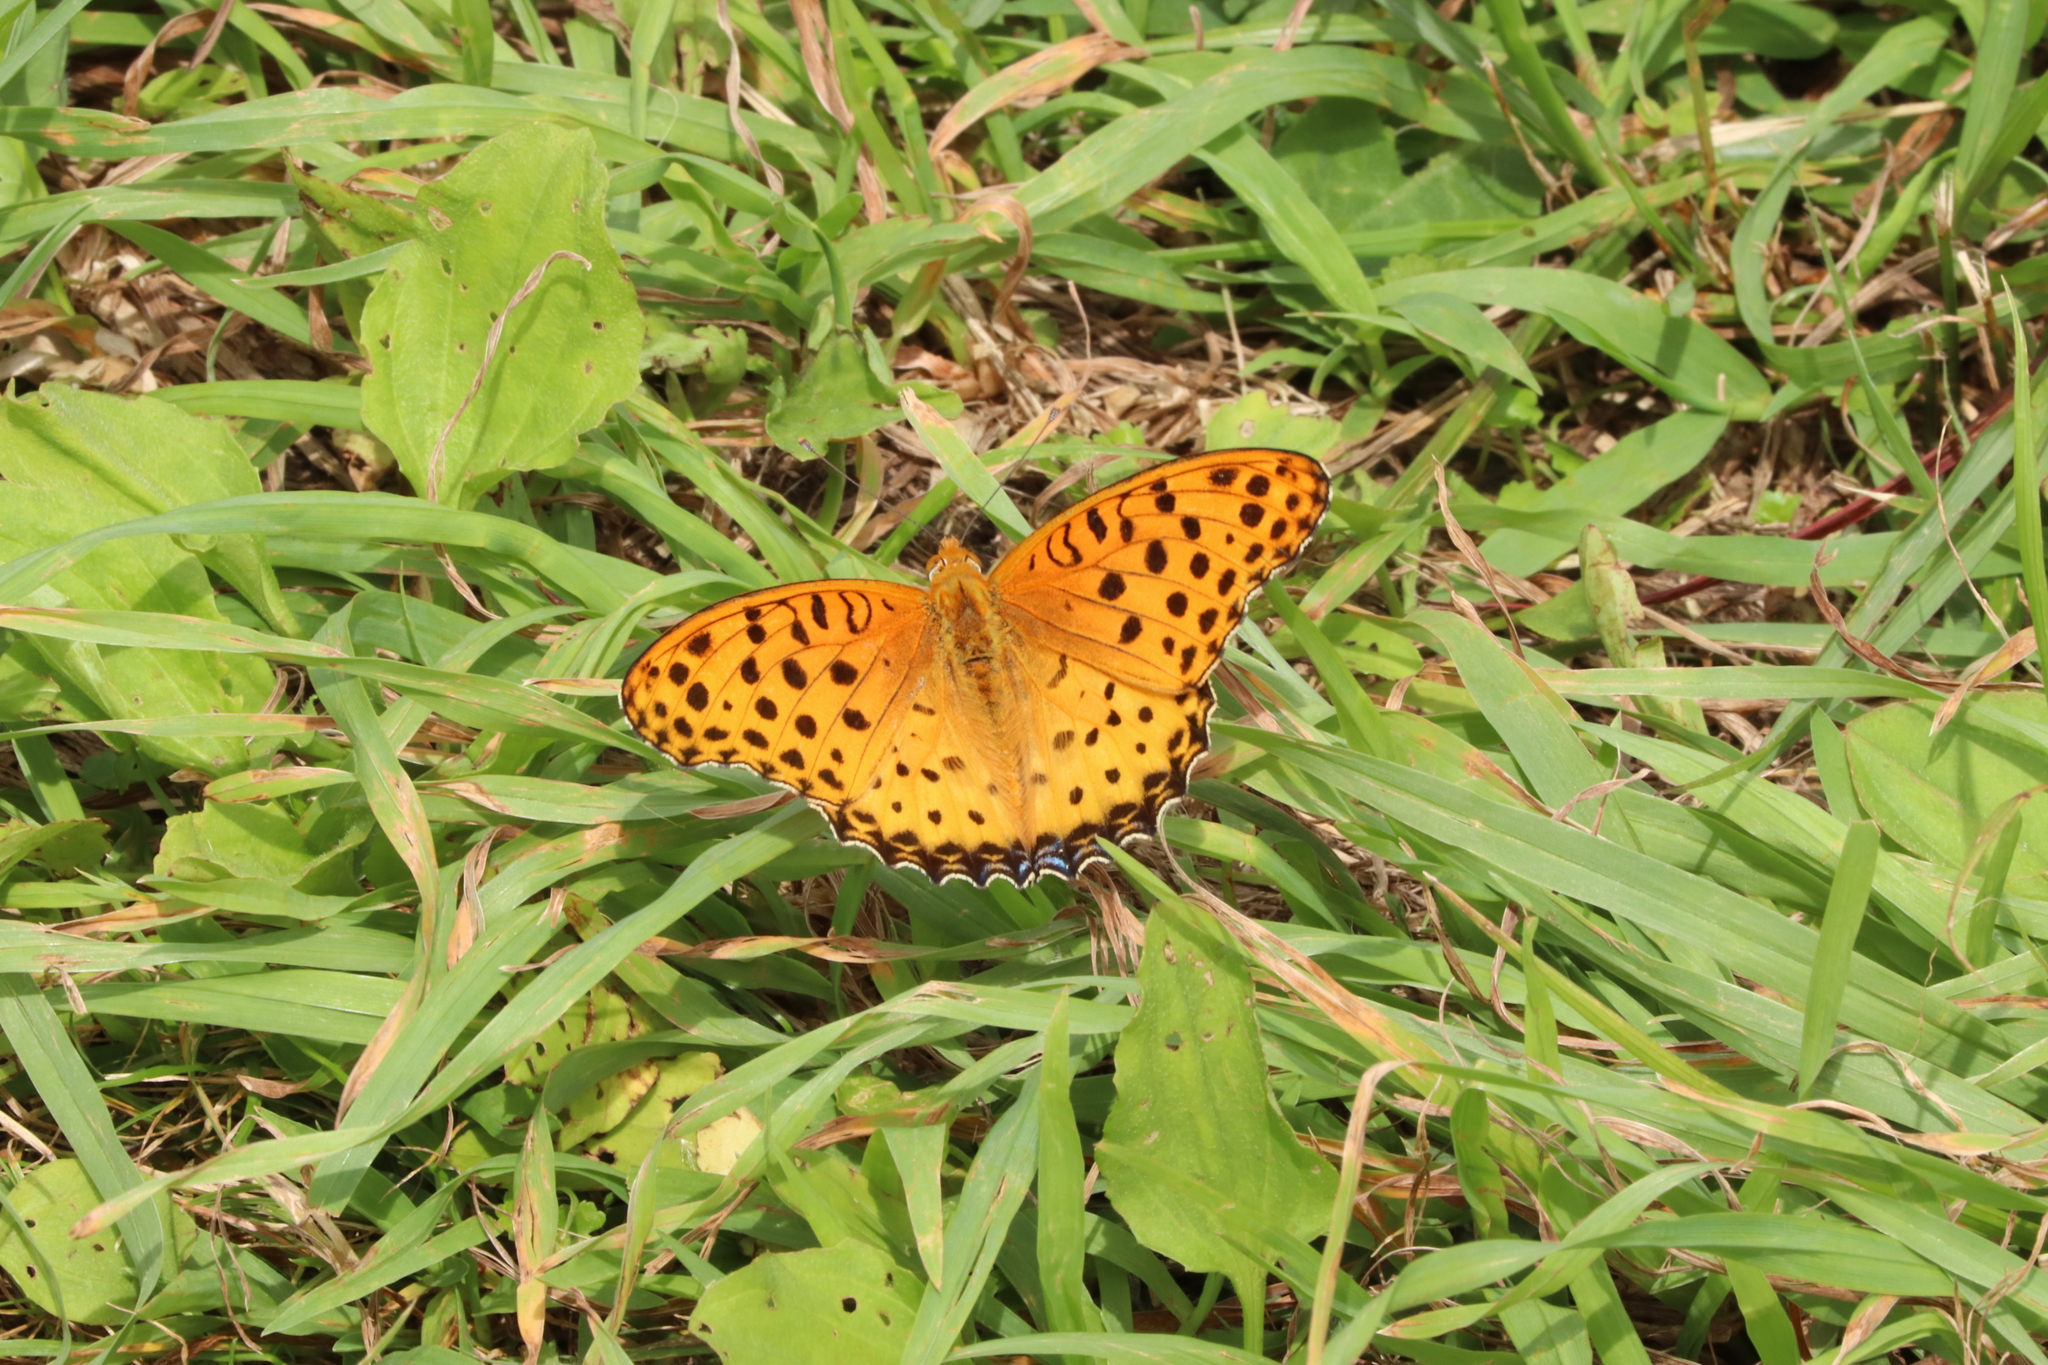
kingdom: Animalia
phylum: Arthropoda
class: Insecta
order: Lepidoptera
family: Nymphalidae
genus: Argynnis
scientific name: Argynnis hyperbius
